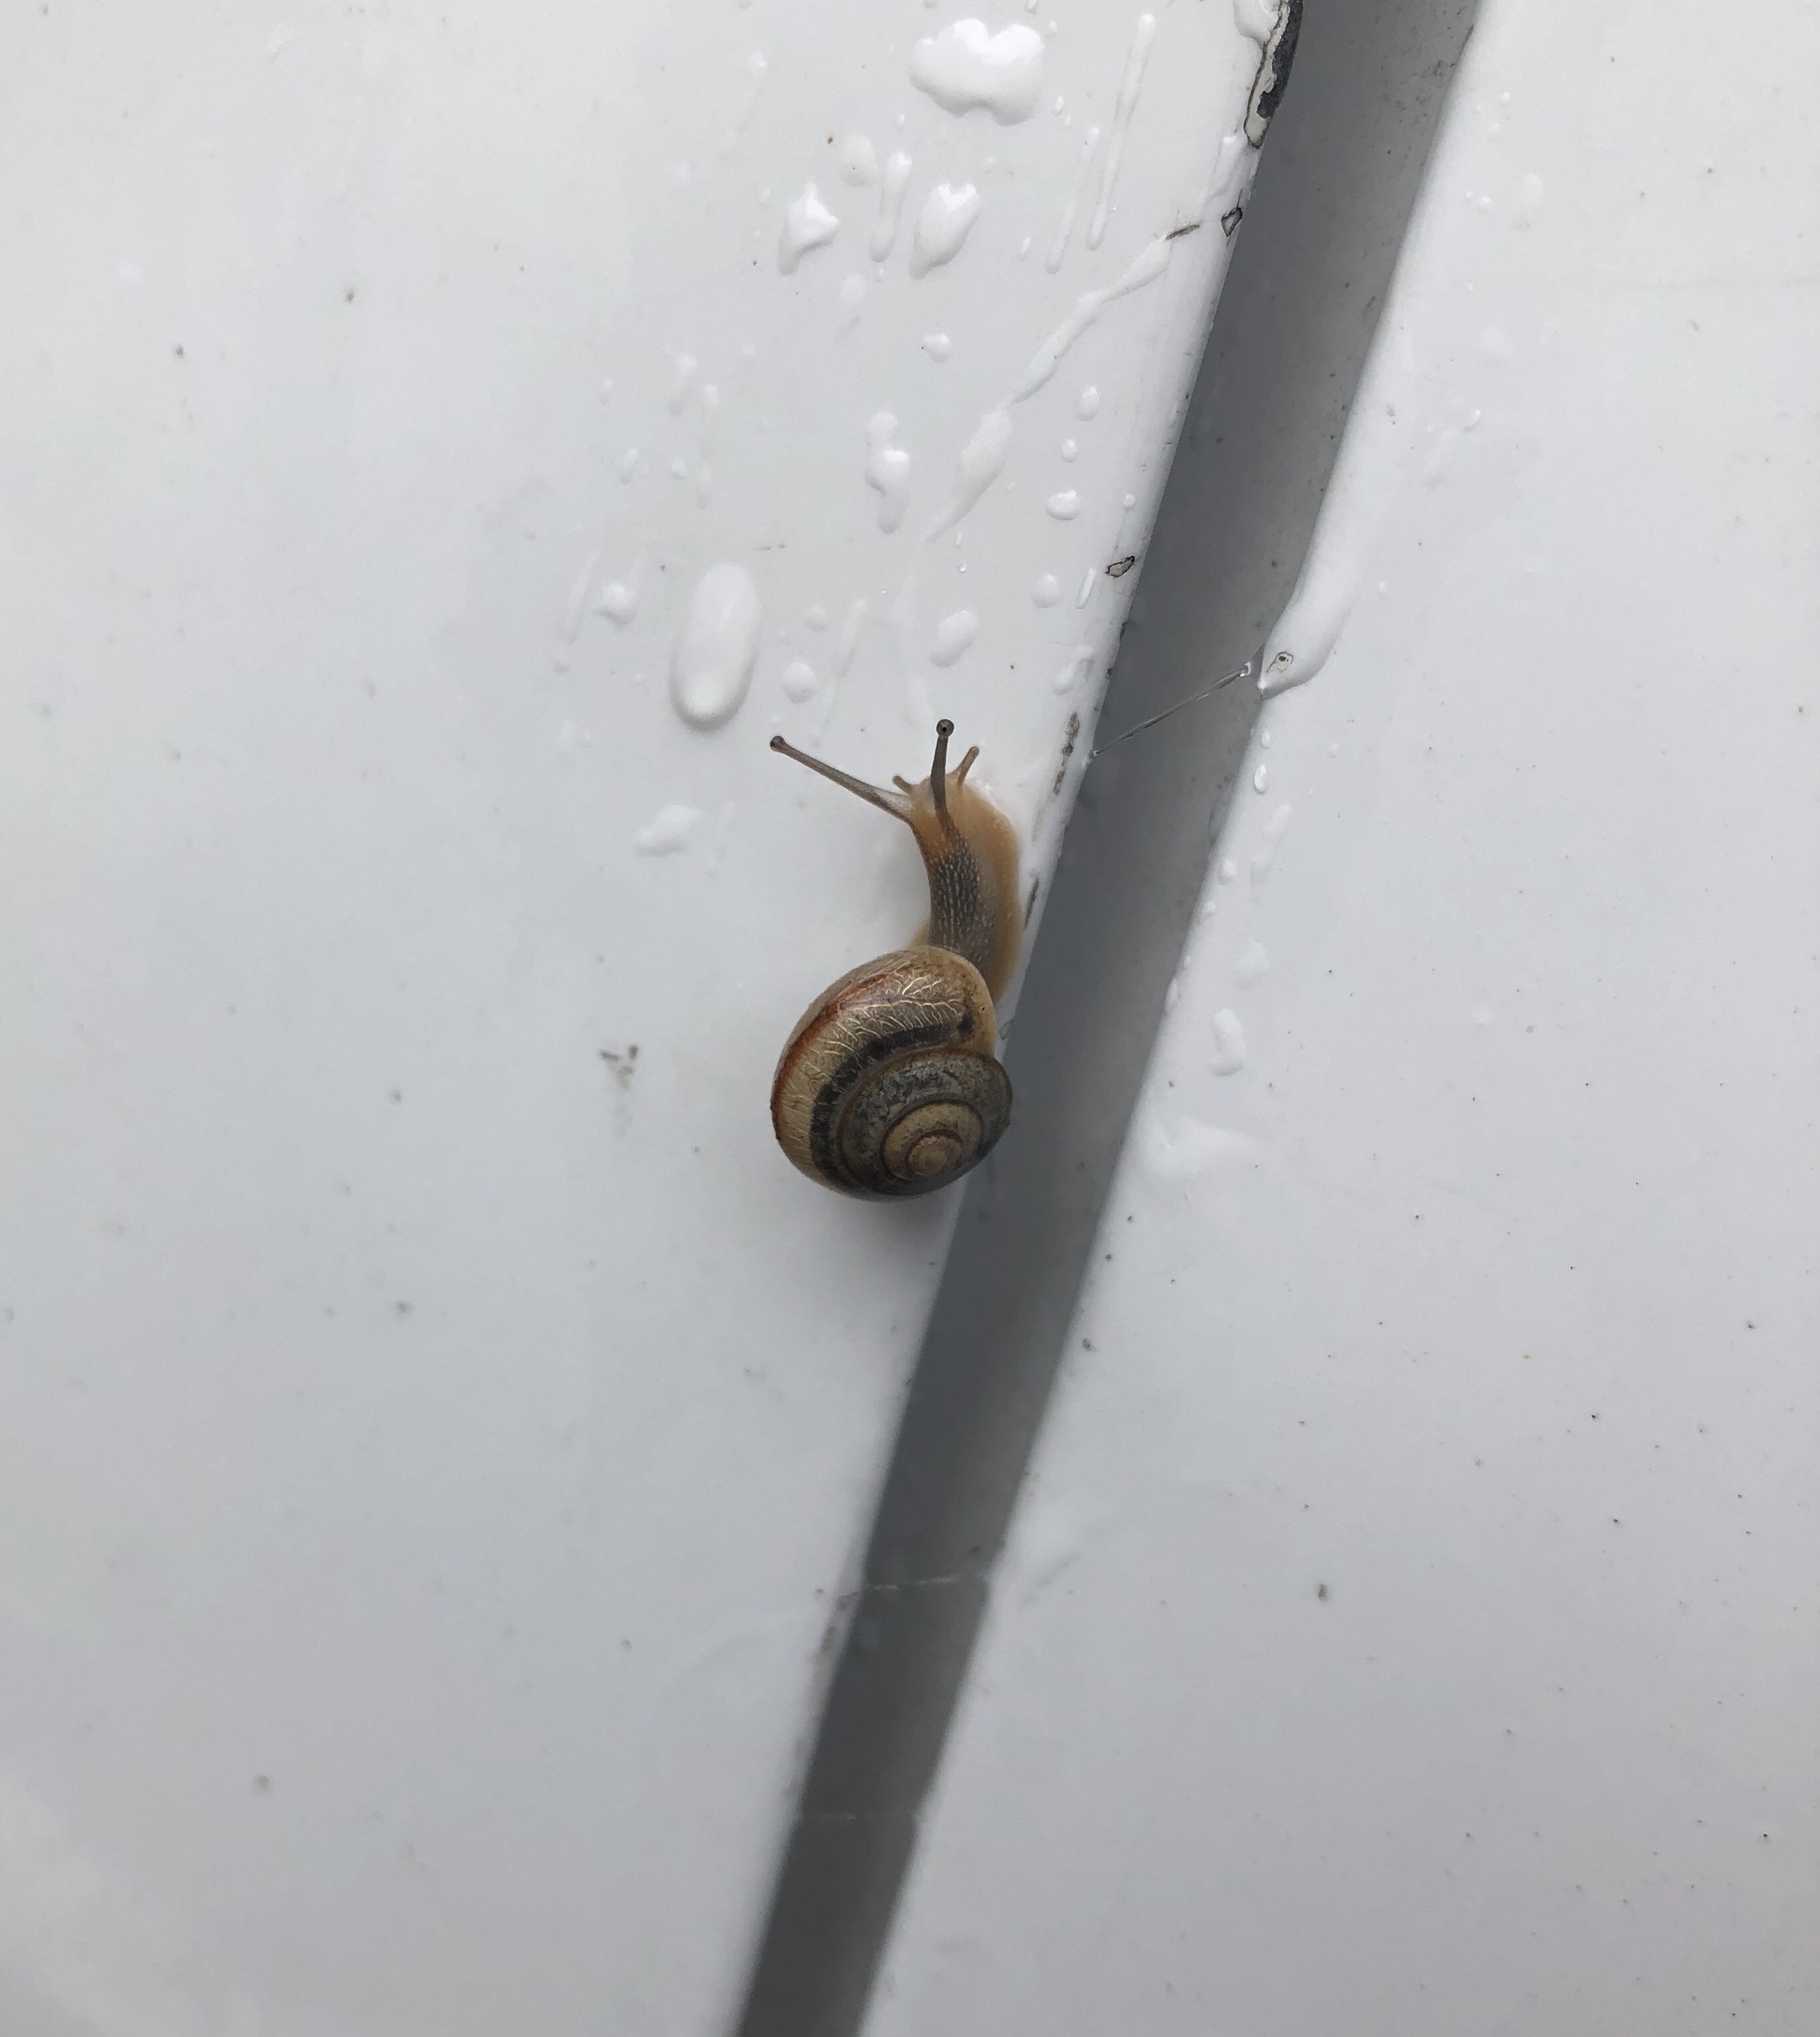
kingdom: Animalia
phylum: Mollusca
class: Gastropoda
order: Stylommatophora
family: Camaenidae
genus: Bradybaena
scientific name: Bradybaena similaris
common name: Asian trampsnail
